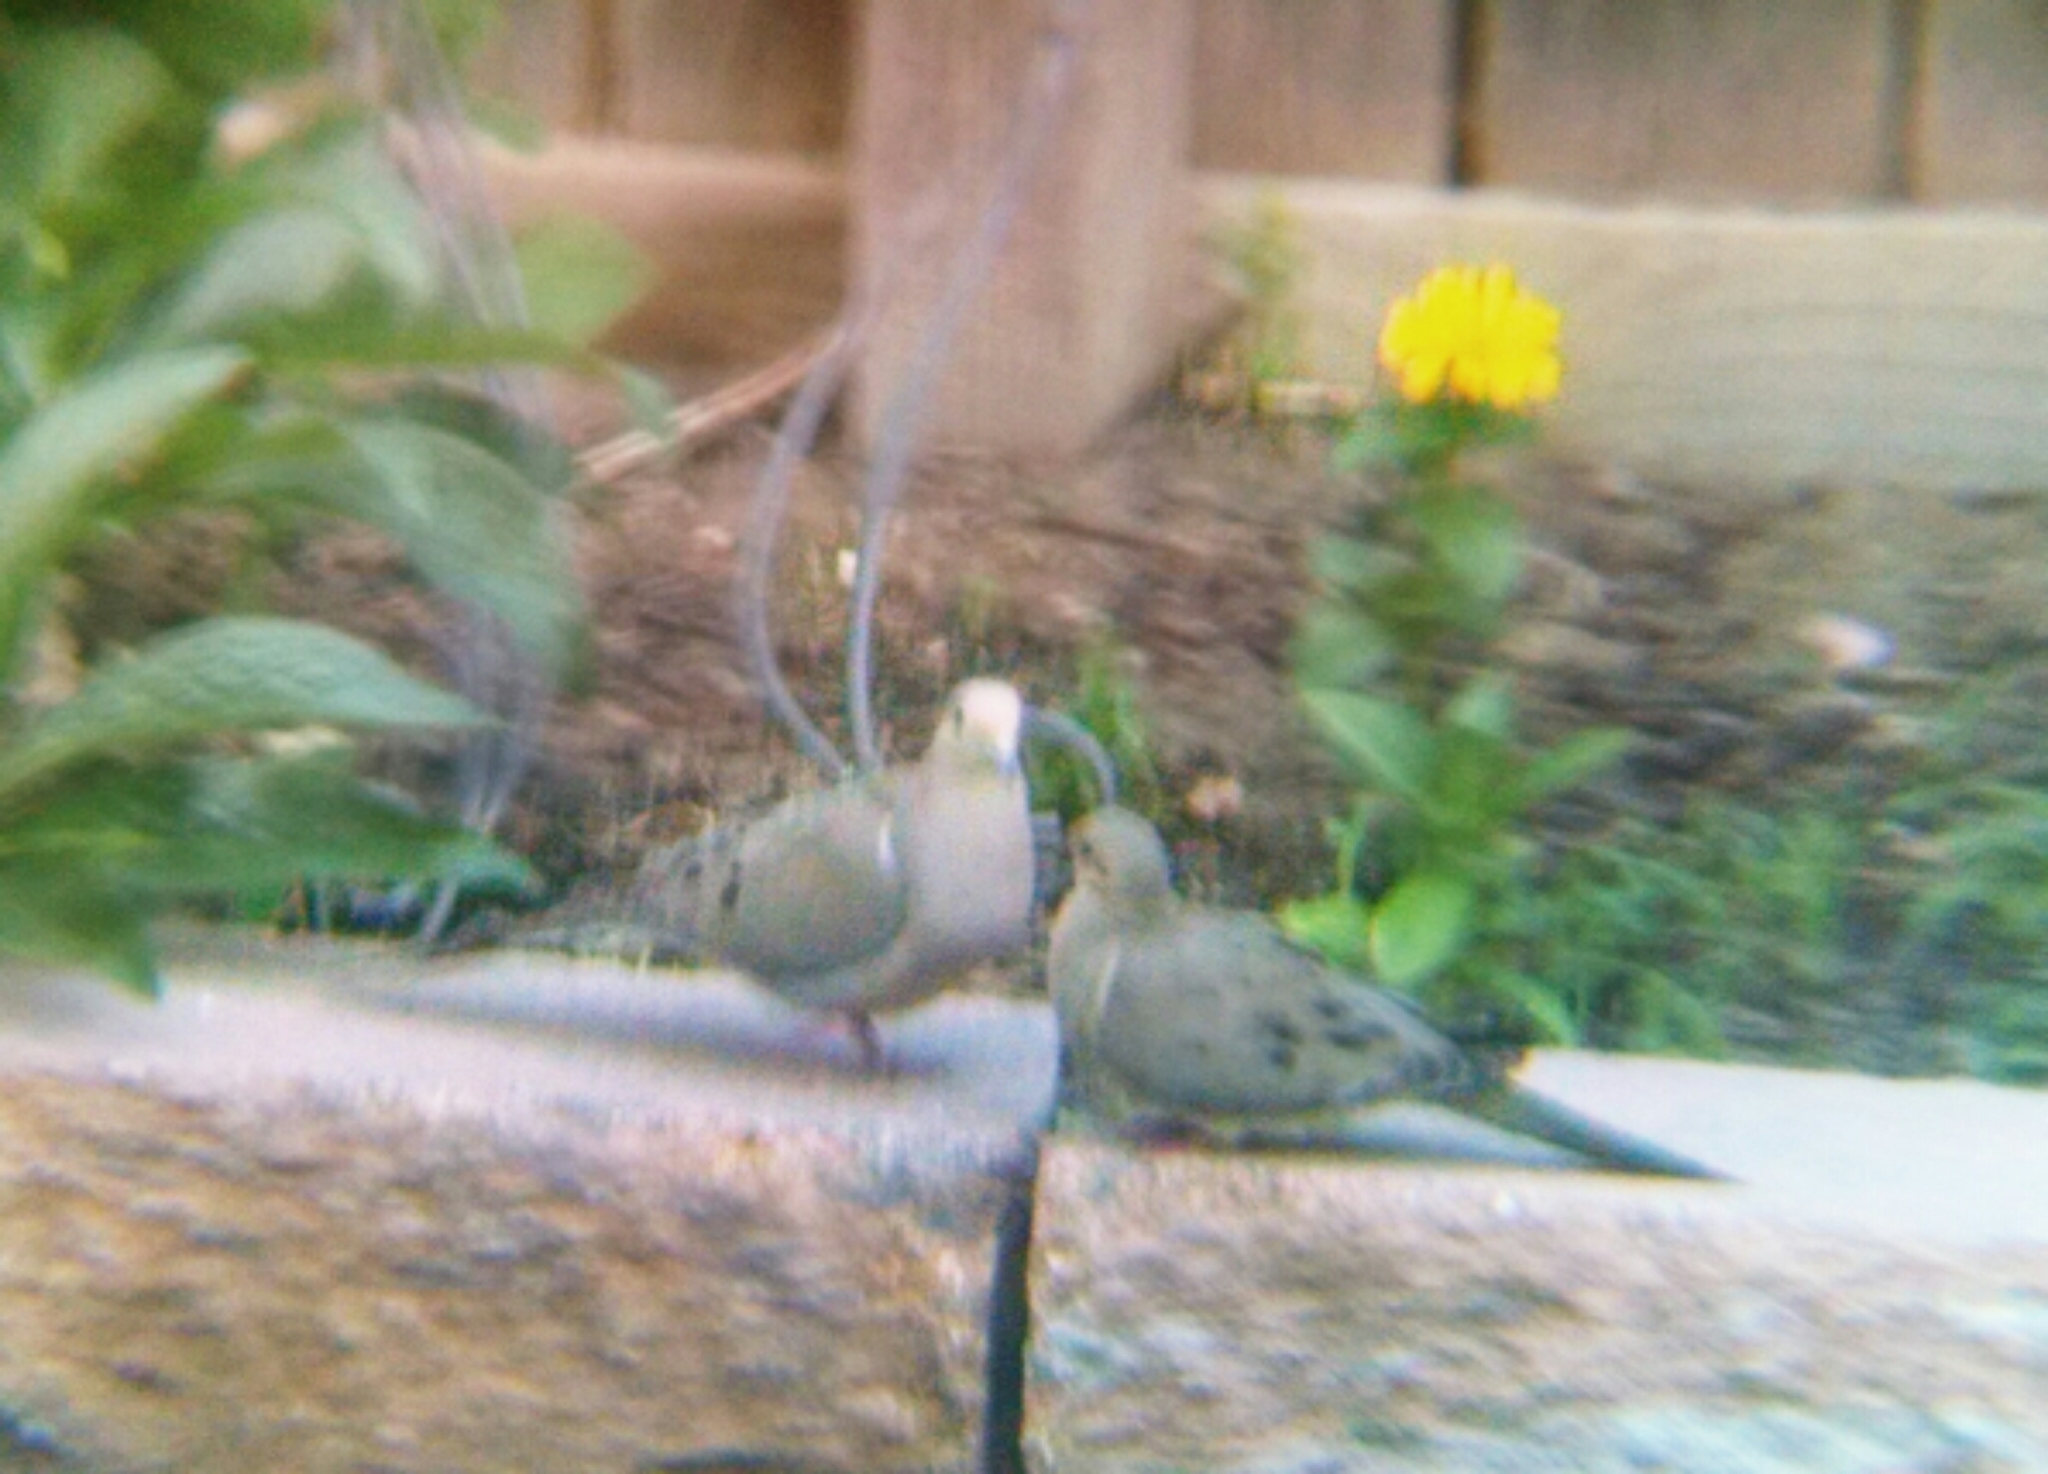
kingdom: Animalia
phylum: Chordata
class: Aves
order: Columbiformes
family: Columbidae
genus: Zenaida
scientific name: Zenaida macroura
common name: Mourning dove
